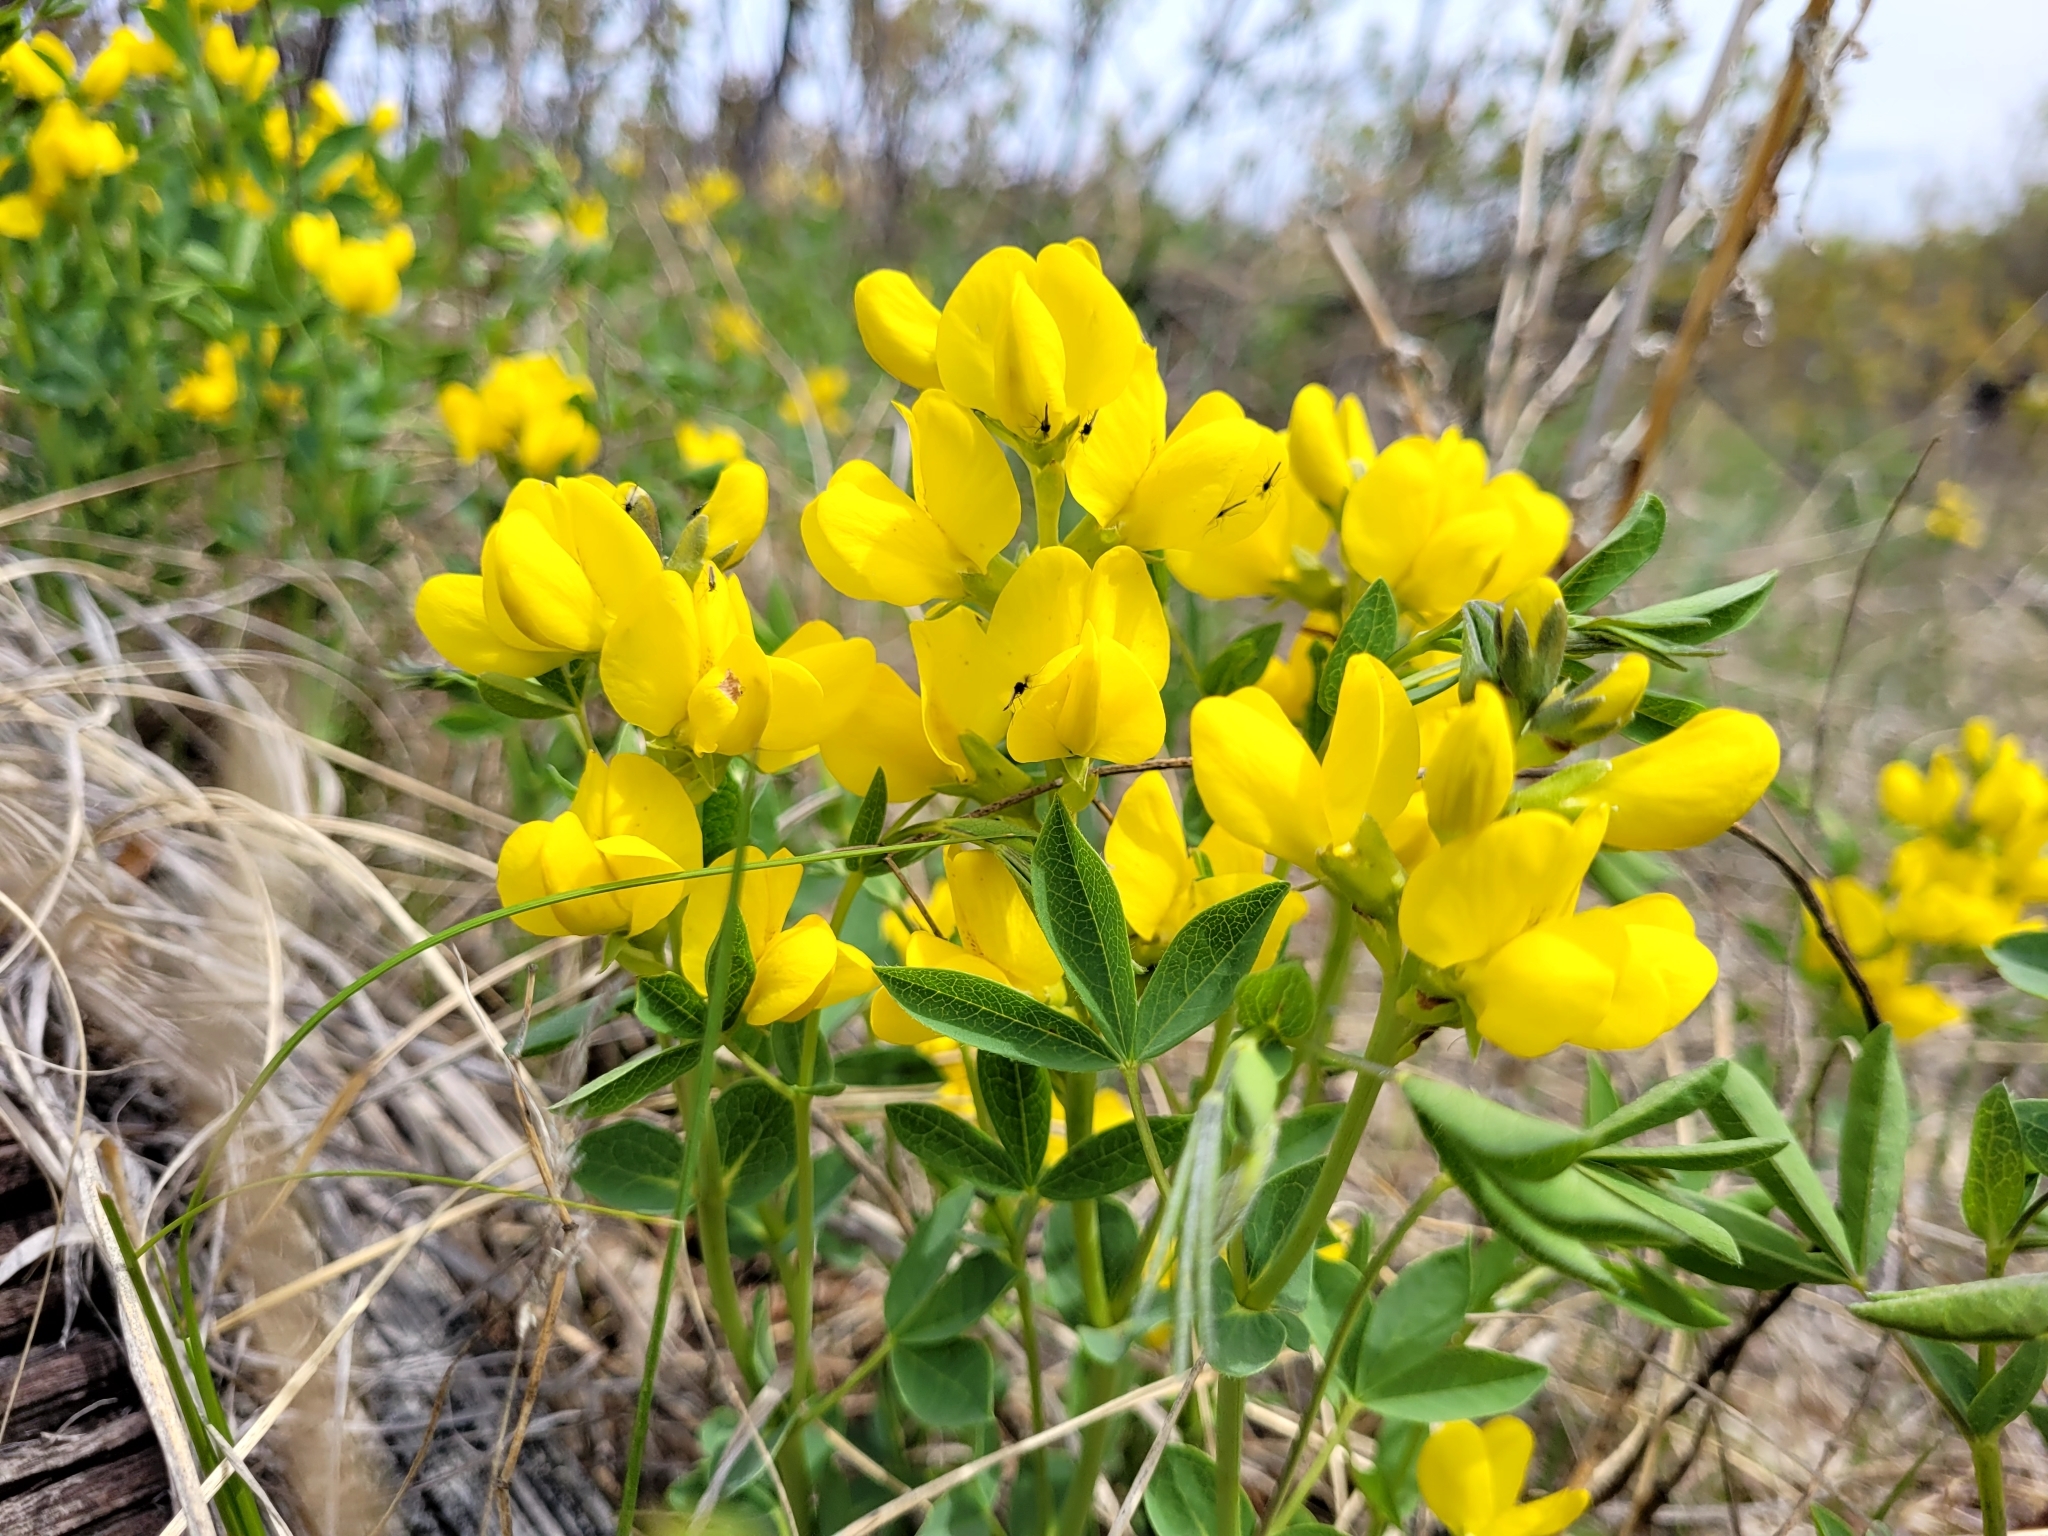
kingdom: Plantae
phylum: Tracheophyta
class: Magnoliopsida
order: Fabales
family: Fabaceae
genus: Thermopsis
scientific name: Thermopsis rhombifolia
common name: Circle-pod-pea
